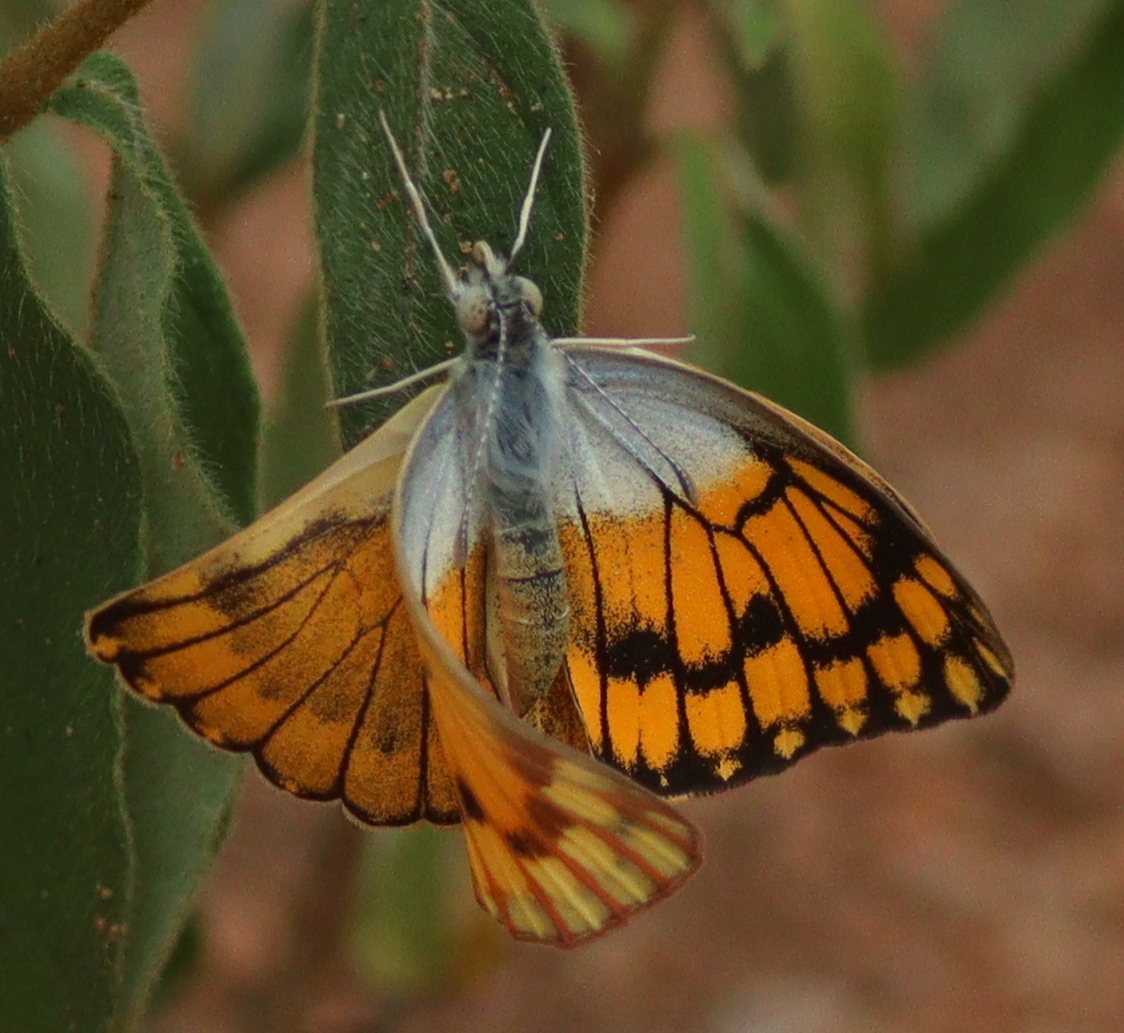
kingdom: Animalia
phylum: Arthropoda
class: Insecta
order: Lepidoptera
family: Pieridae
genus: Colotis
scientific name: Colotis chrysonome
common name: Golden arab
